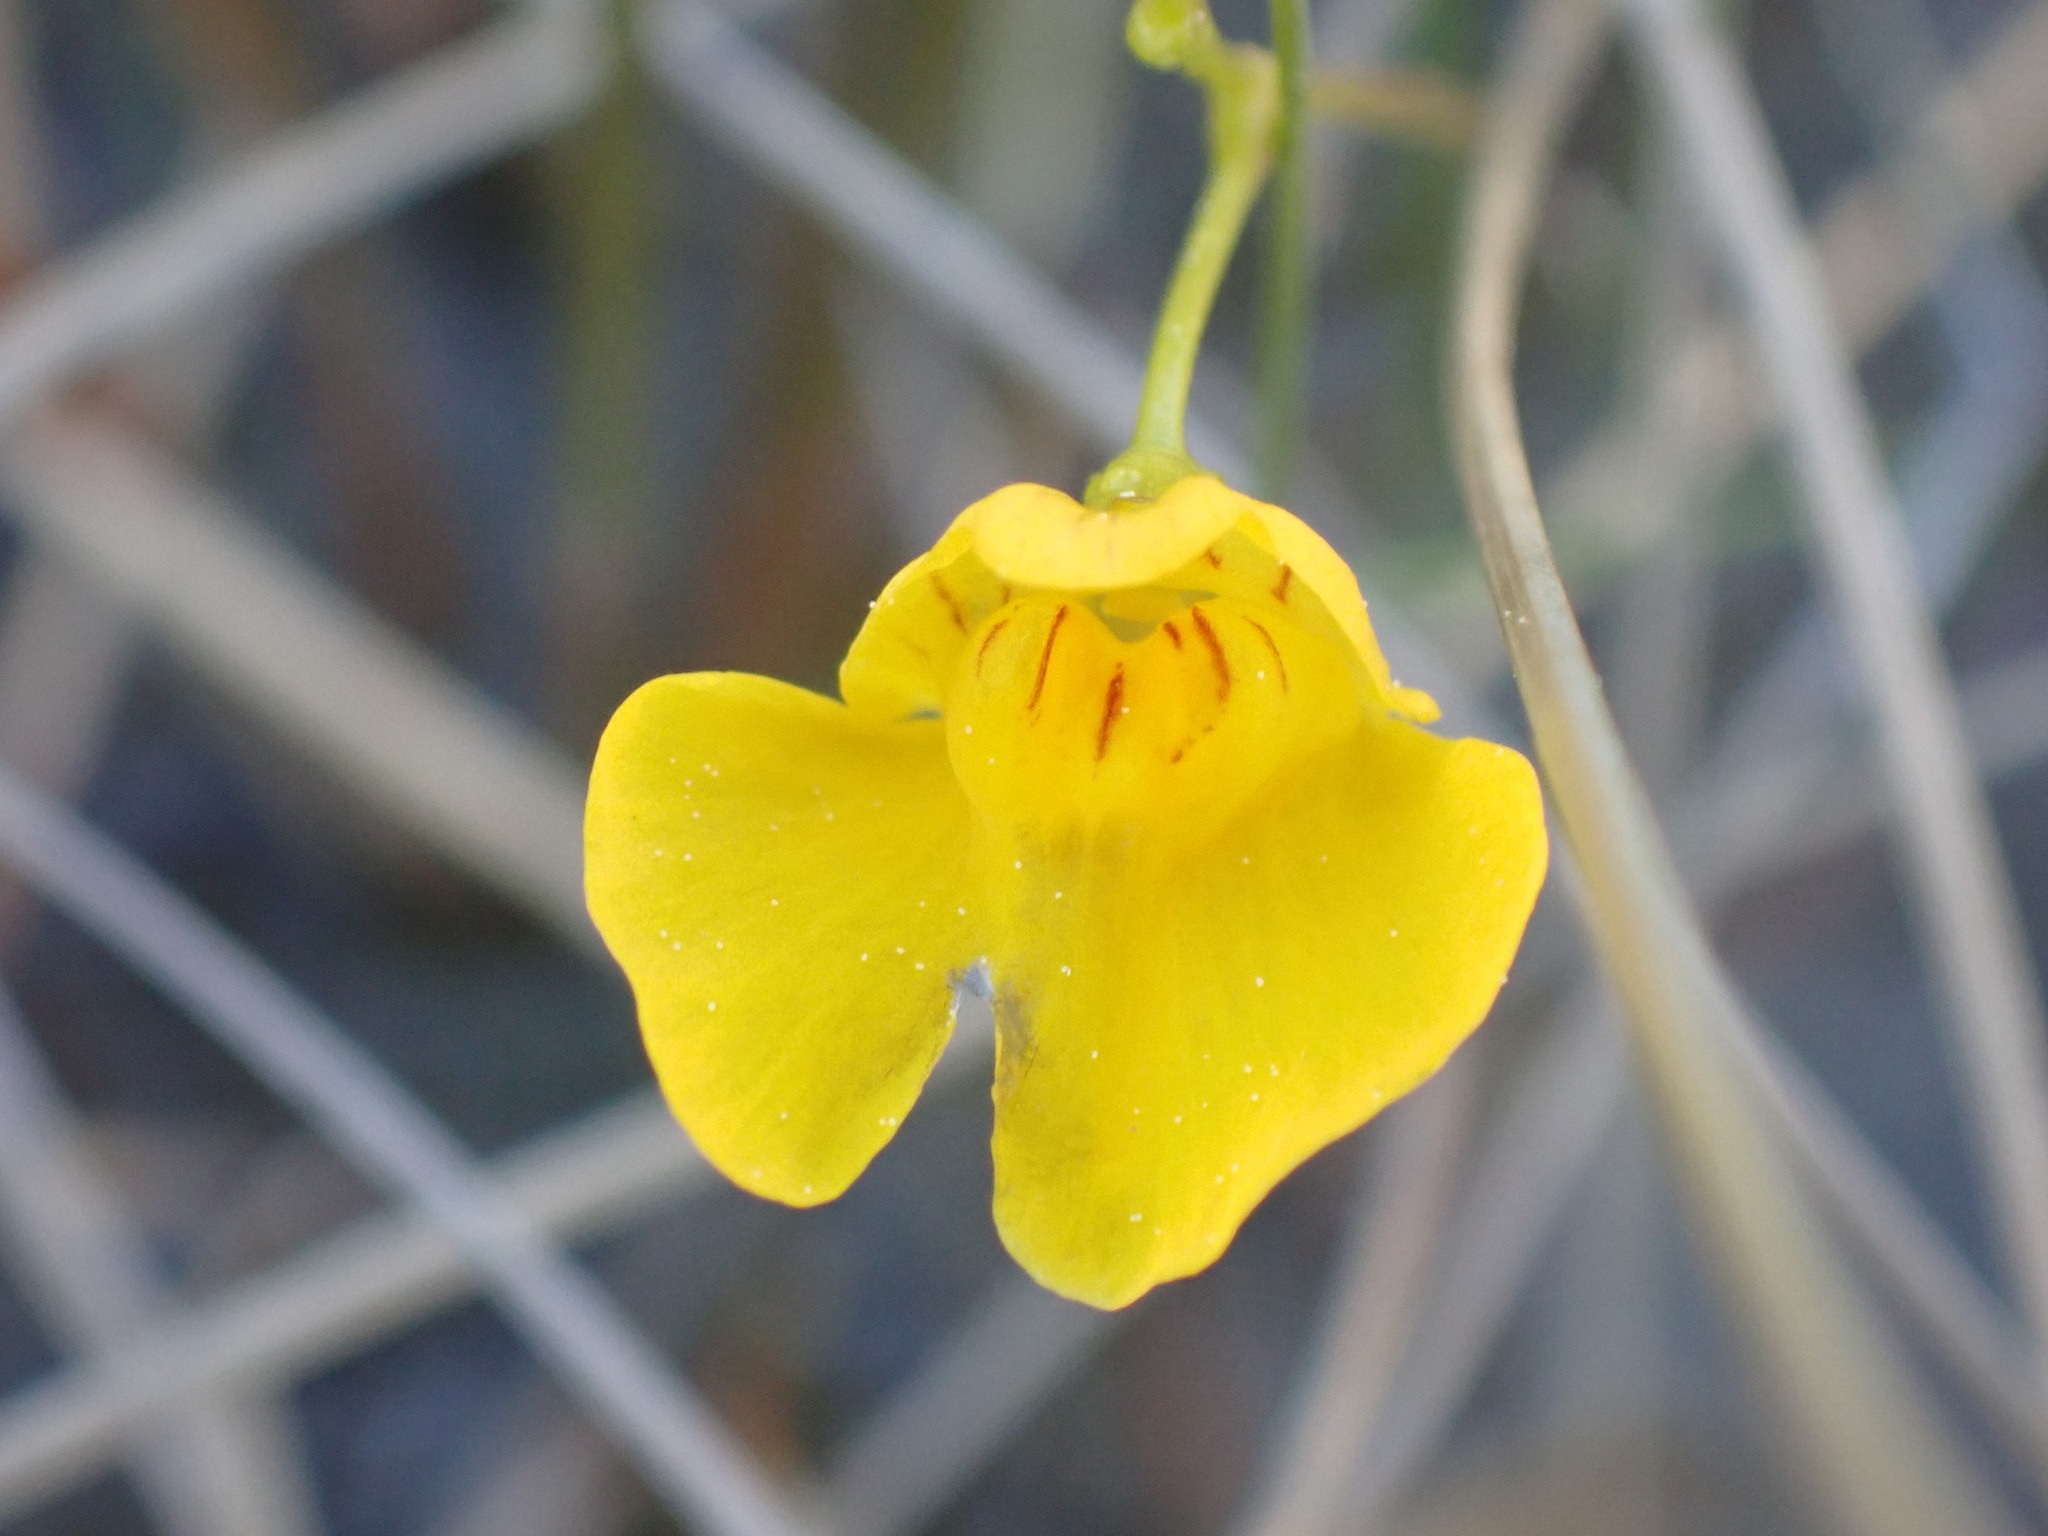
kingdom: Plantae
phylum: Tracheophyta
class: Magnoliopsida
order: Lamiales
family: Lentibulariaceae
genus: Utricularia
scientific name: Utricularia intermedia
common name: Intermediate bladderwort
